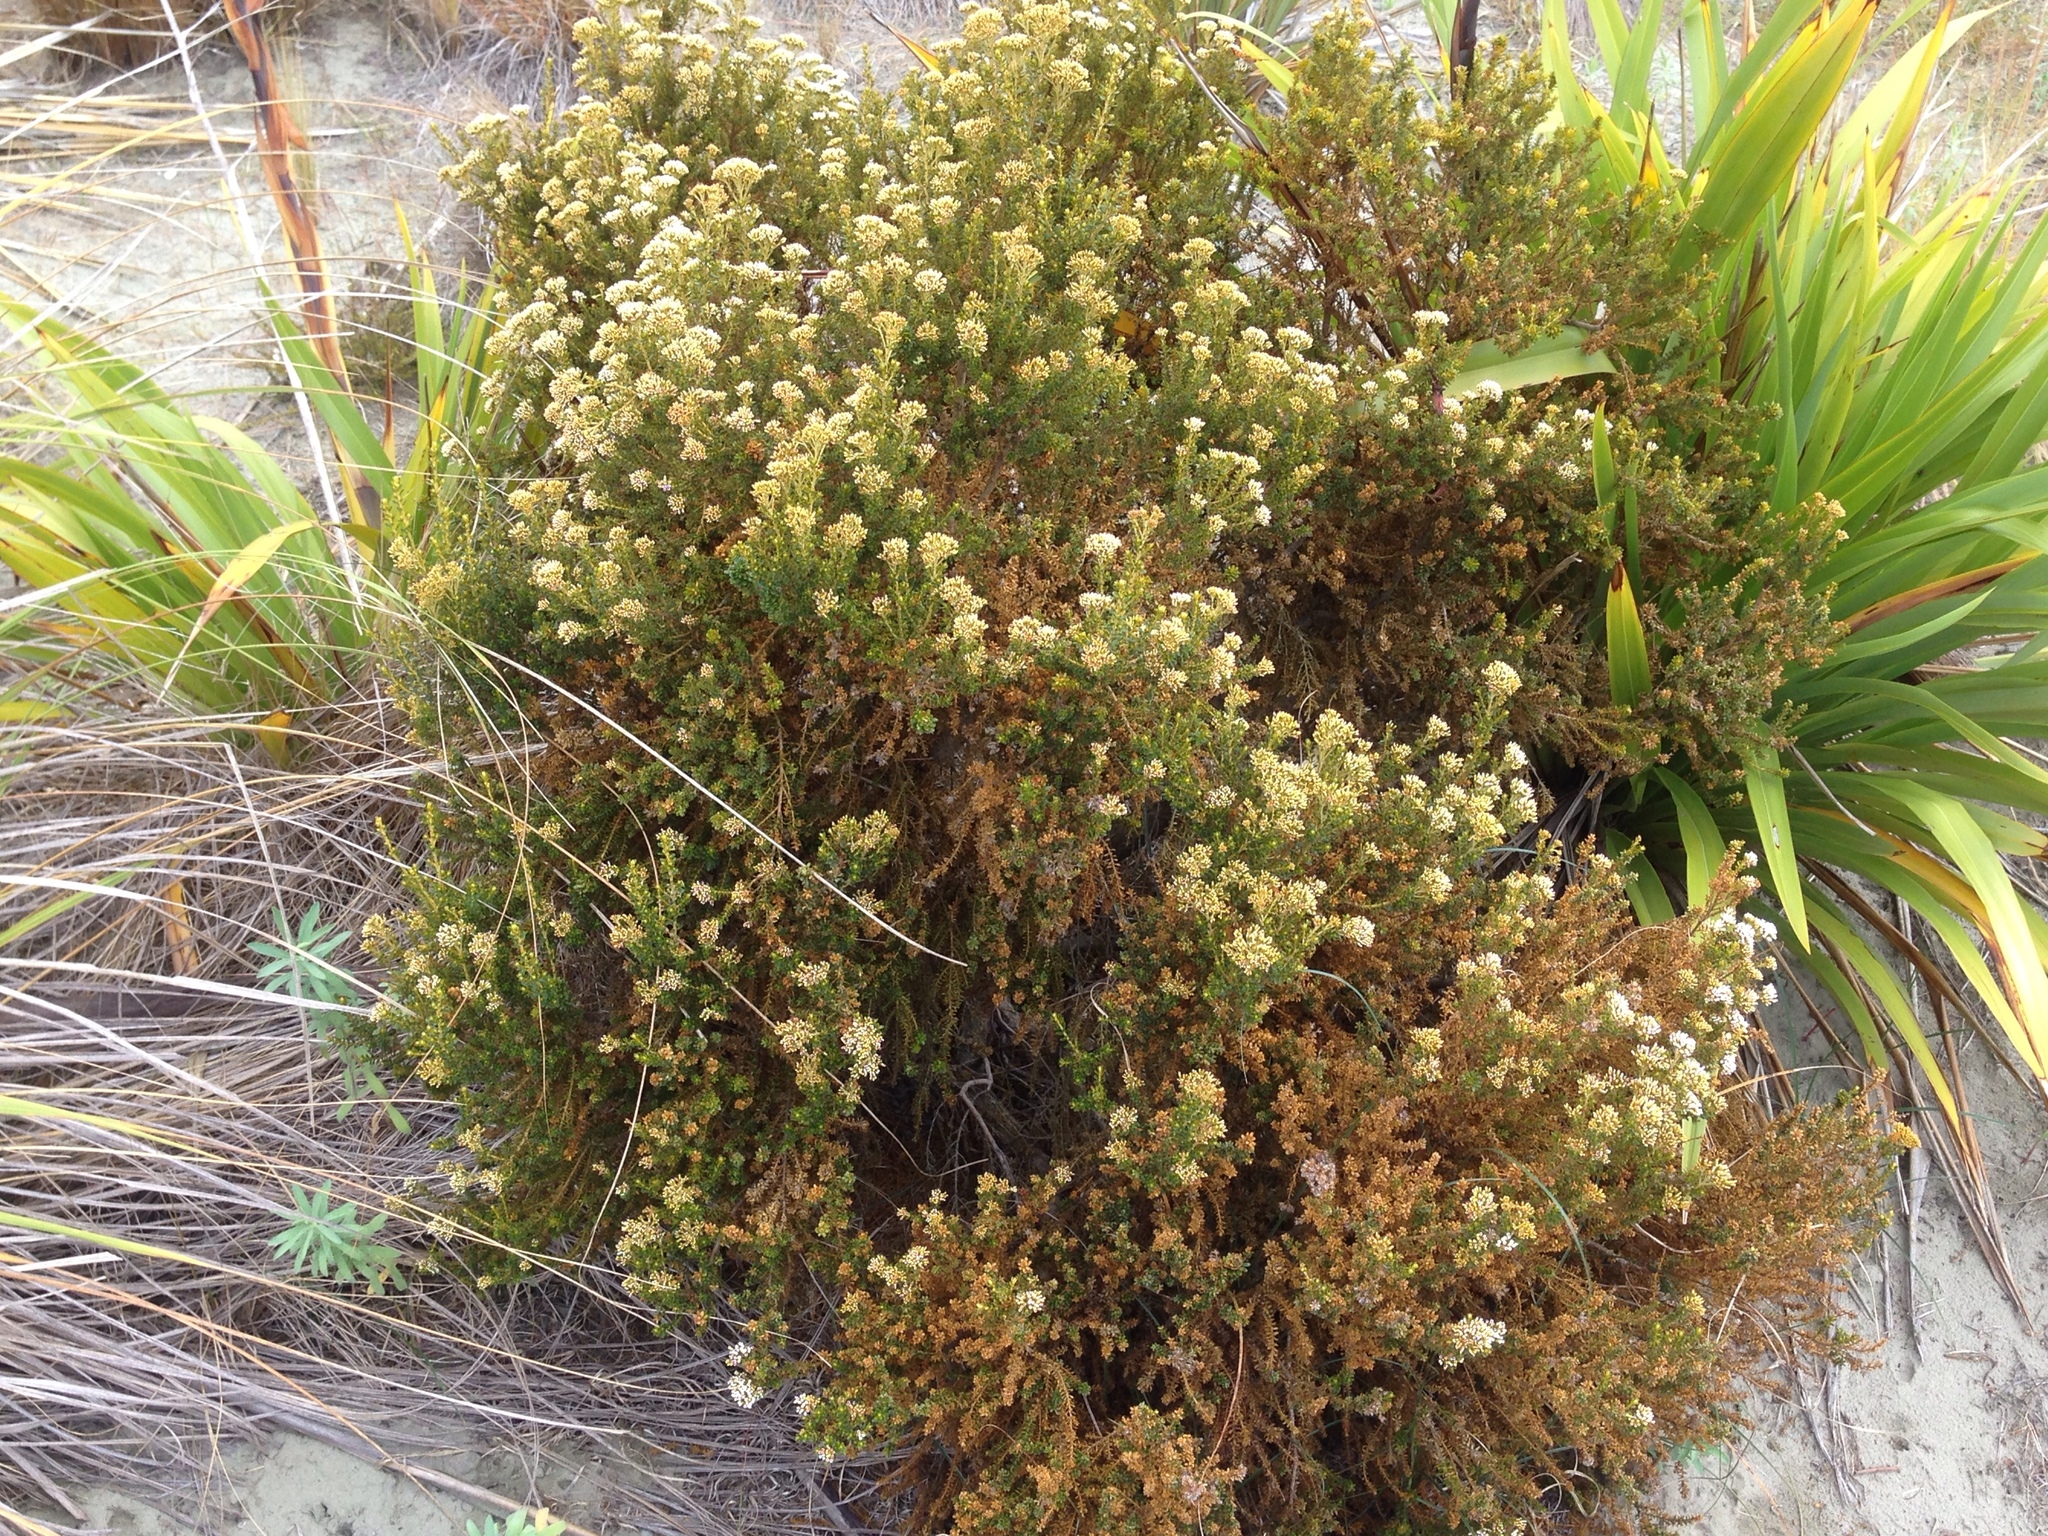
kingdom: Plantae
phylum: Tracheophyta
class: Magnoliopsida
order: Asterales
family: Asteraceae
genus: Ozothamnus
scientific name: Ozothamnus leptophyllus
